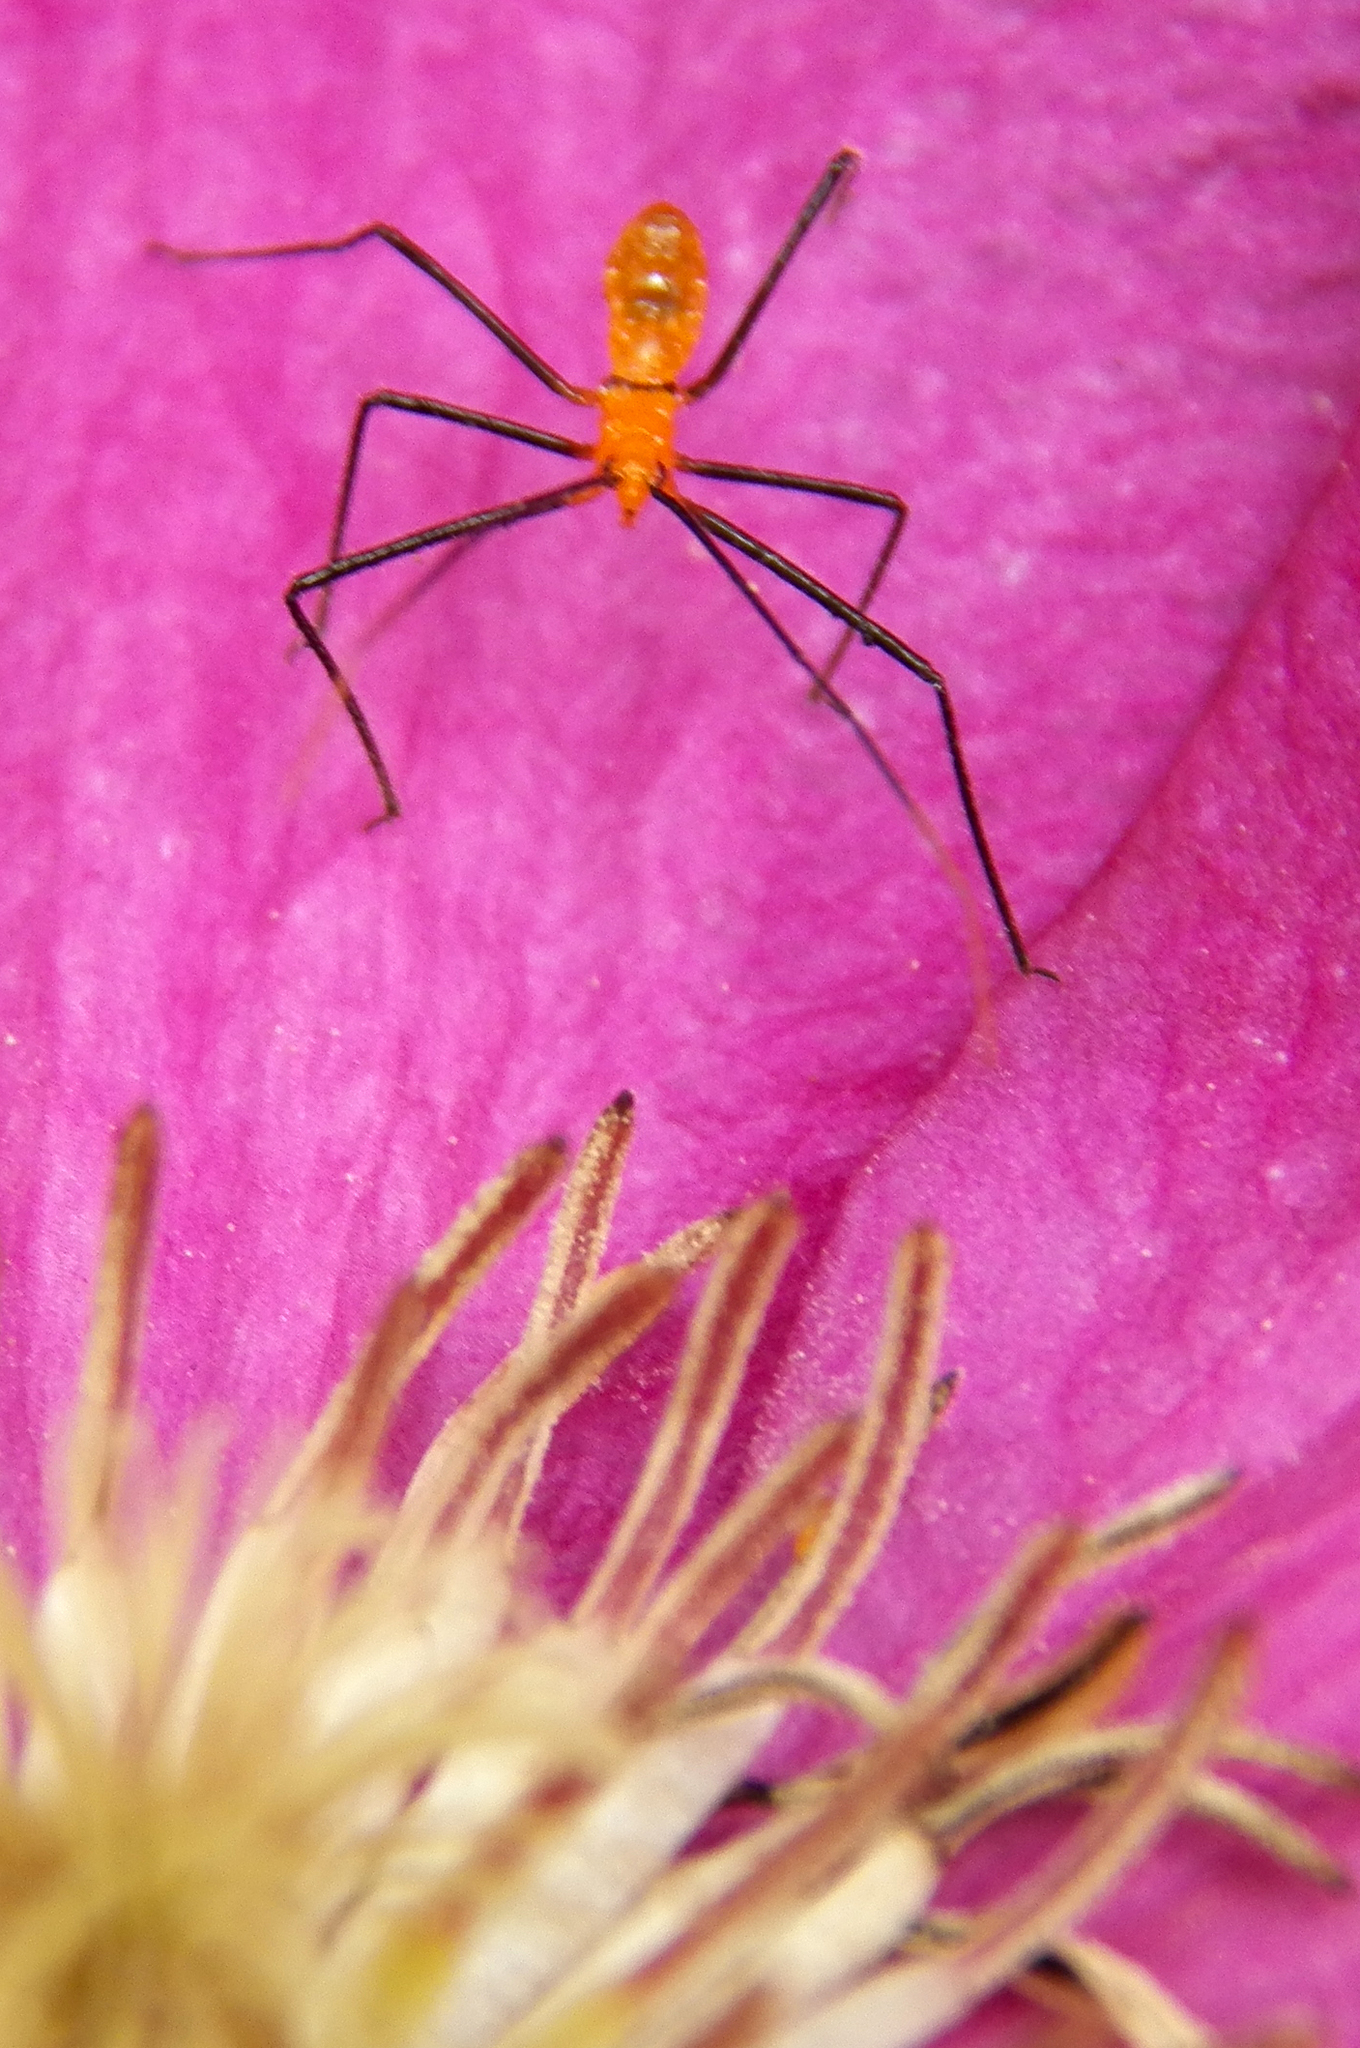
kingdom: Animalia
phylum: Arthropoda
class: Insecta
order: Hemiptera
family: Reduviidae
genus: Zelus
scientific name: Zelus longipes
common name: Milkweed assassin bug
